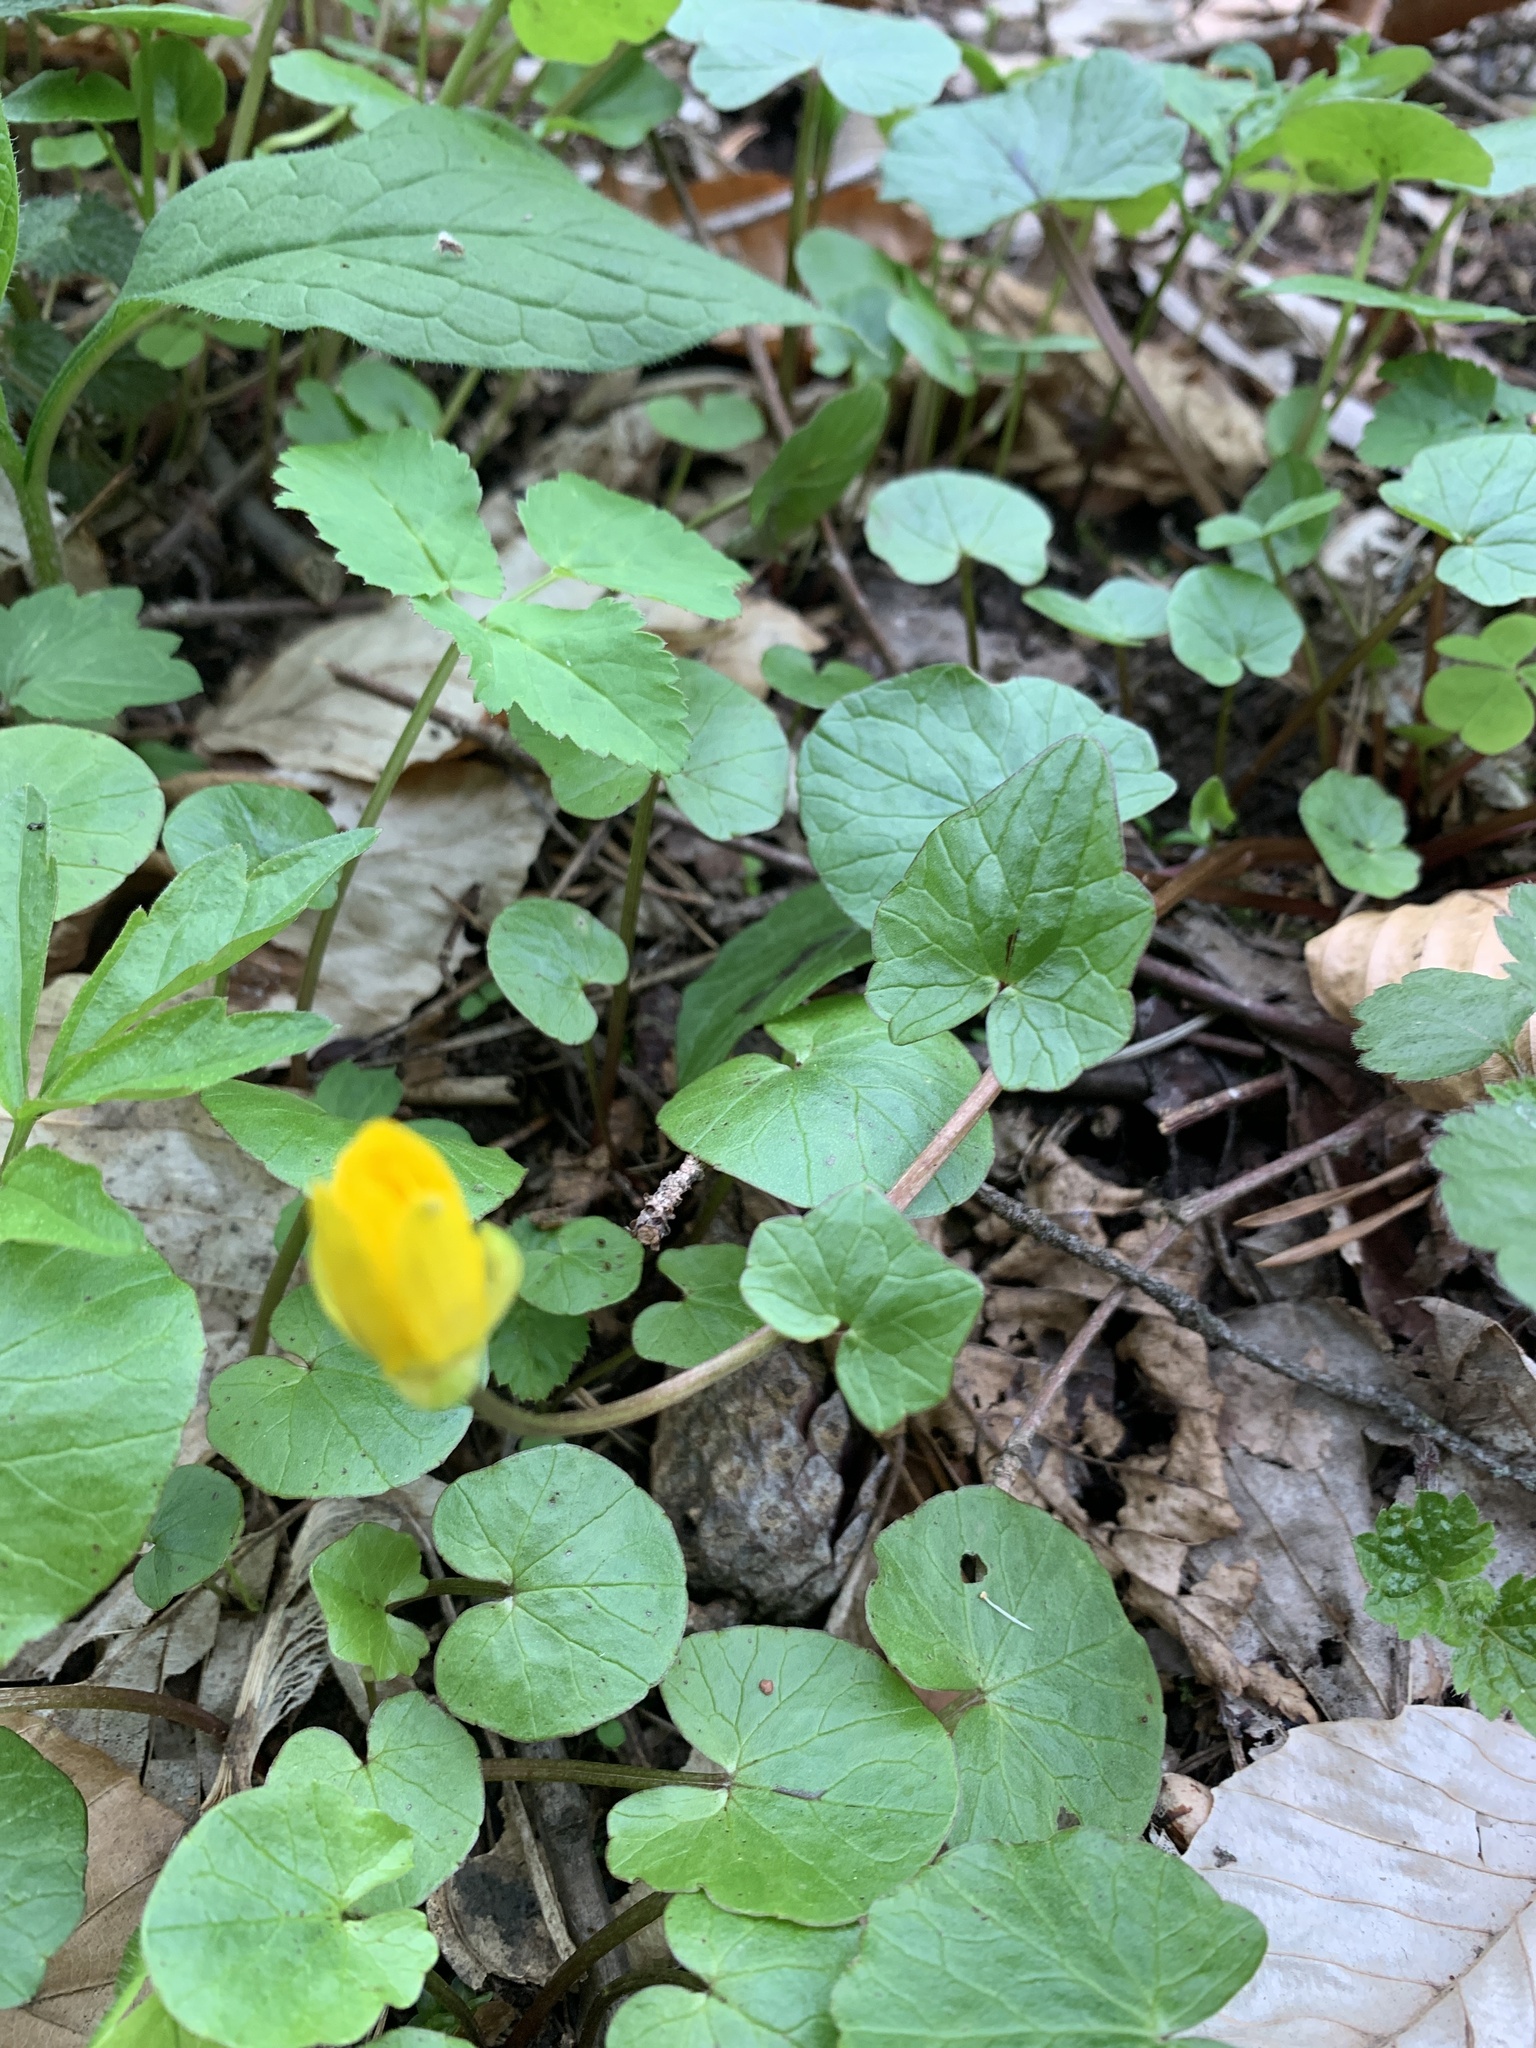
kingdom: Plantae
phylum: Tracheophyta
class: Magnoliopsida
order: Ranunculales
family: Ranunculaceae
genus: Ficaria
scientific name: Ficaria verna
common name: Lesser celandine
